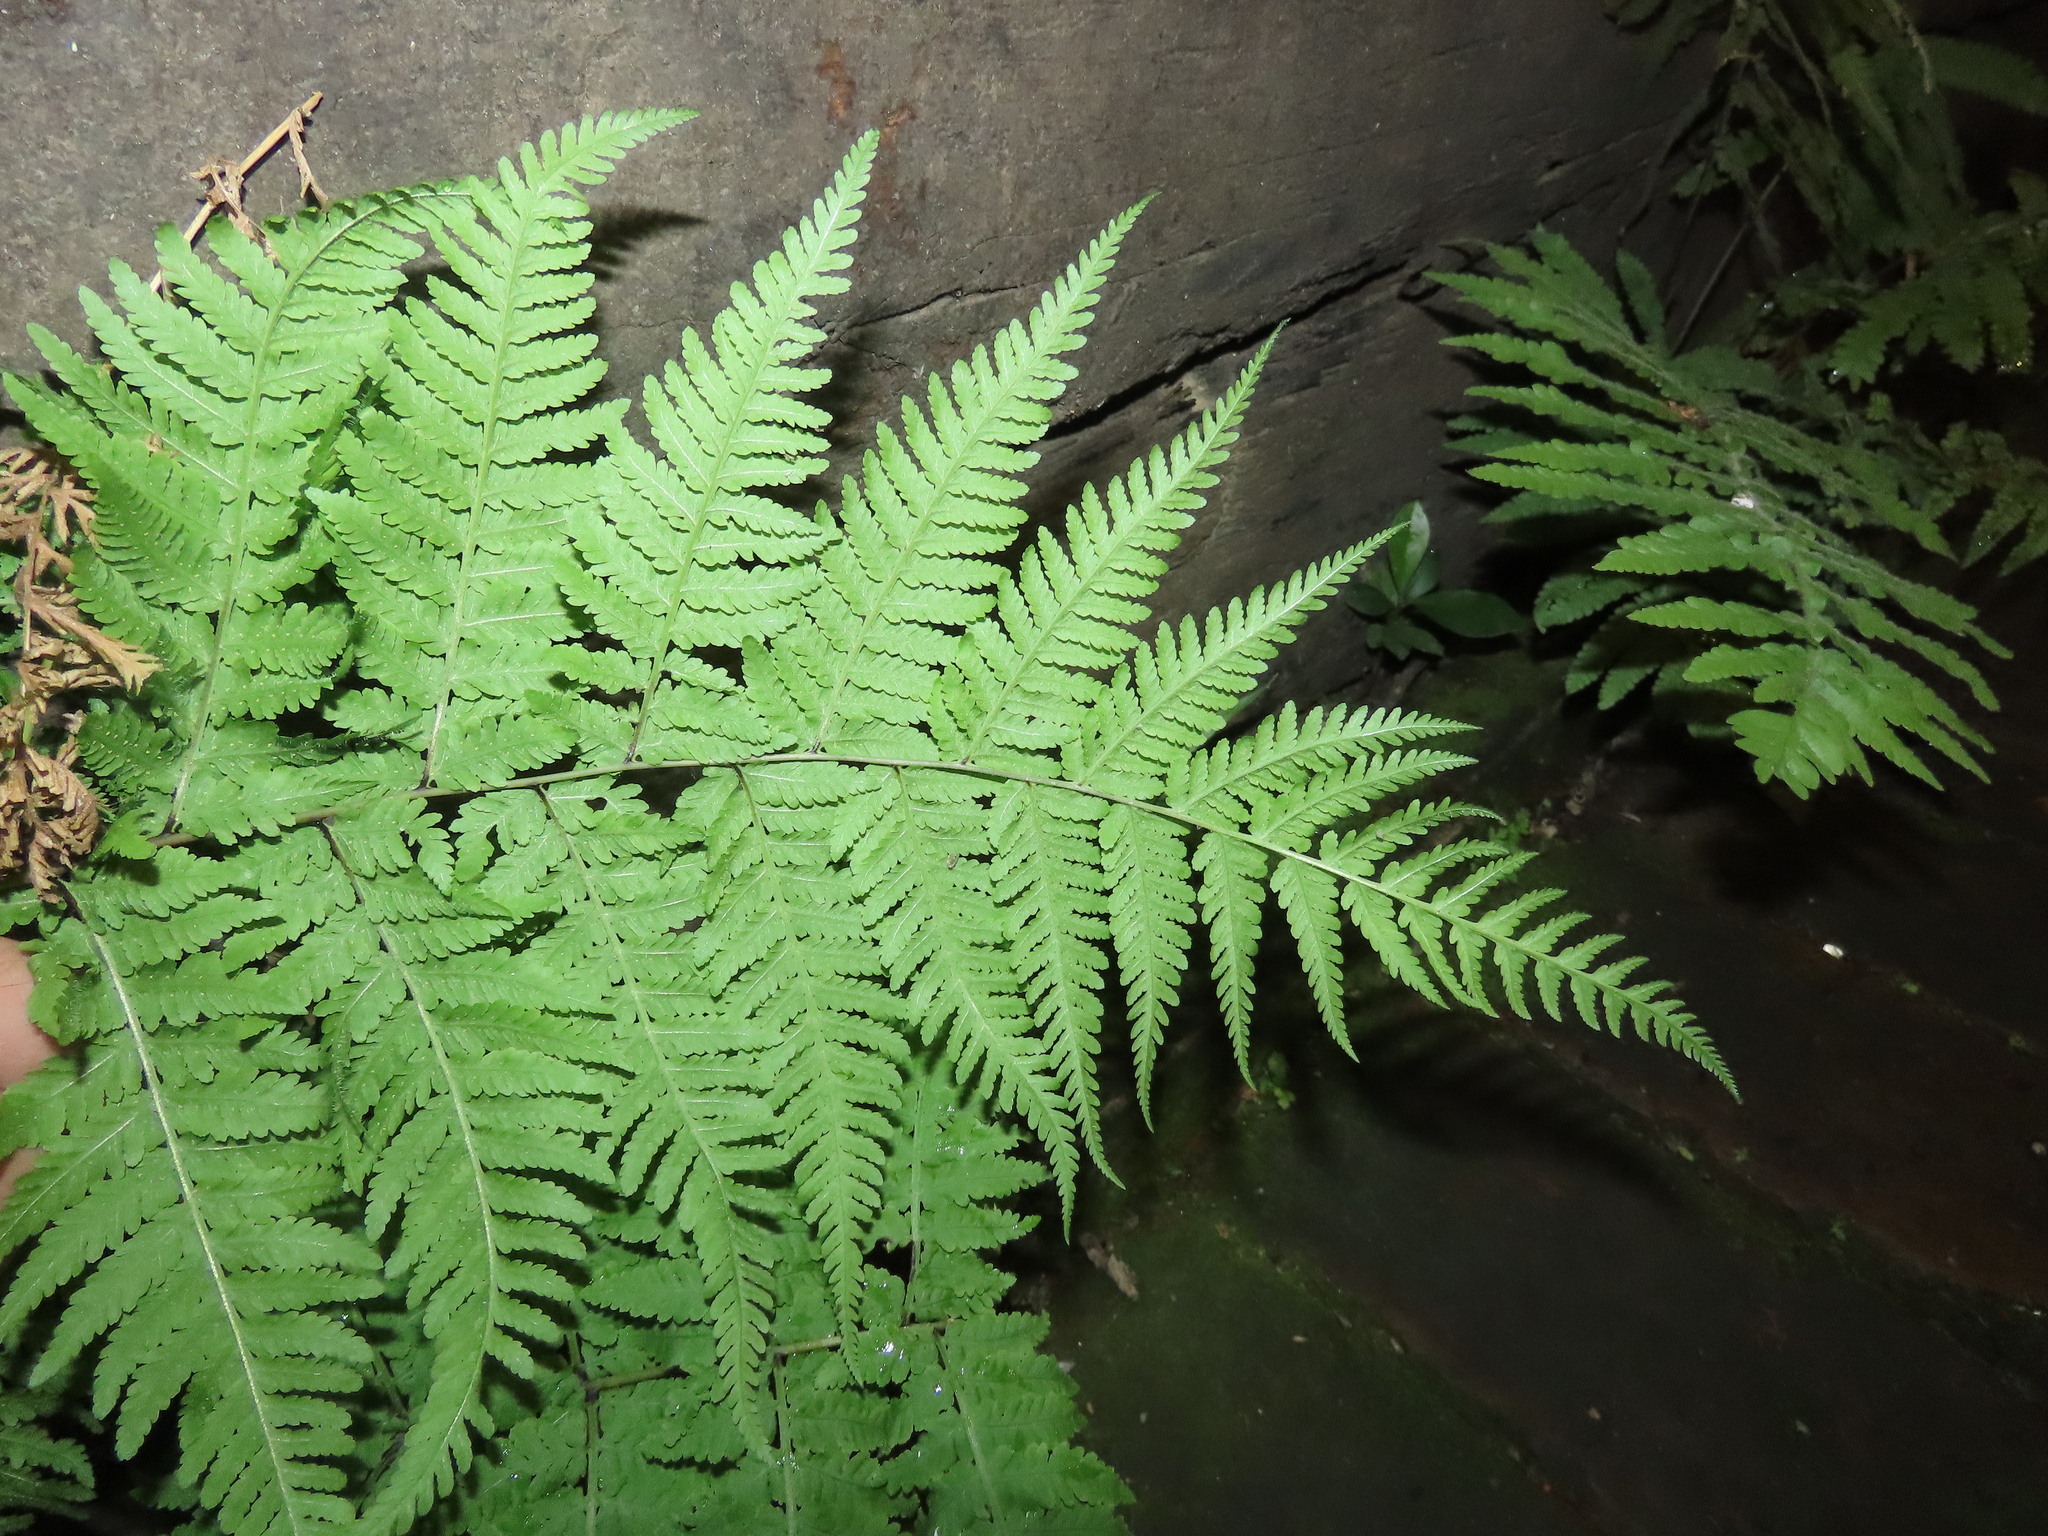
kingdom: Plantae
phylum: Tracheophyta
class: Polypodiopsida
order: Polypodiales
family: Thelypteridaceae
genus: Macrothelypteris
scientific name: Macrothelypteris torresiana
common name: Swordfern
